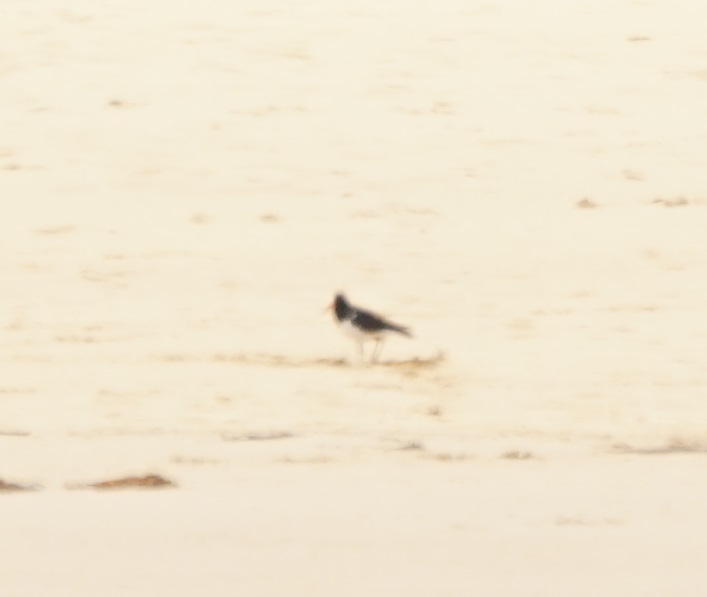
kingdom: Animalia
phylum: Chordata
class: Aves
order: Charadriiformes
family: Haematopodidae
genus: Haematopus
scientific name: Haematopus longirostris
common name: Pied oystercatcher
